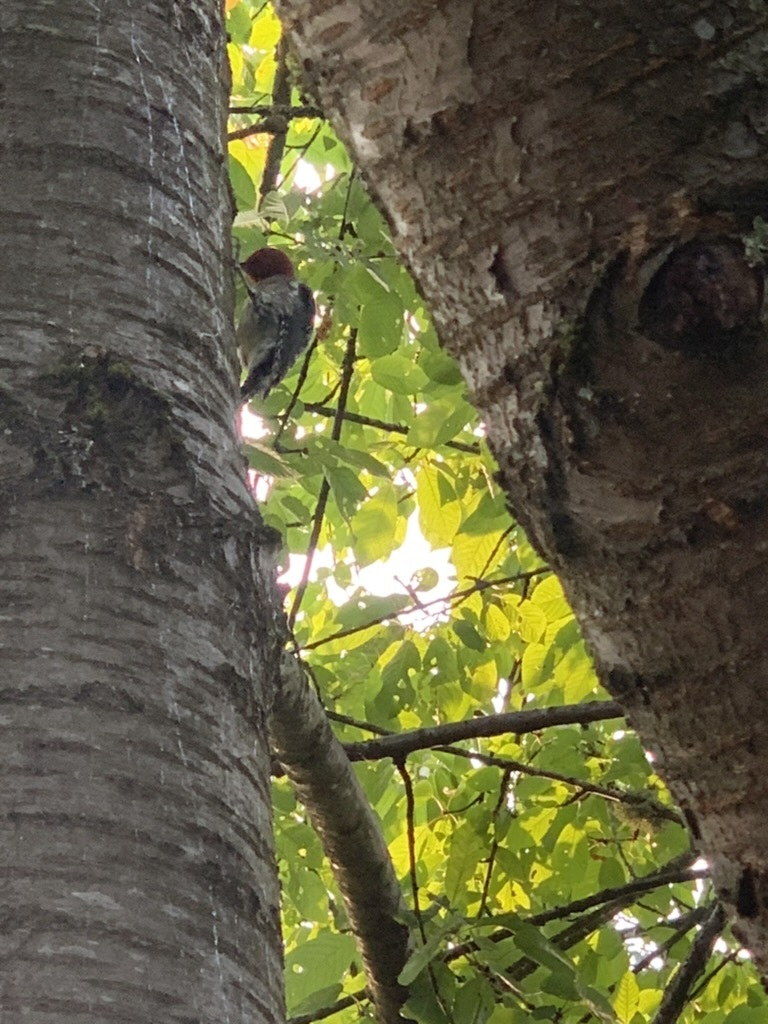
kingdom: Animalia
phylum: Chordata
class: Aves
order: Piciformes
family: Picidae
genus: Sphyrapicus
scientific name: Sphyrapicus ruber
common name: Red-breasted sapsucker
